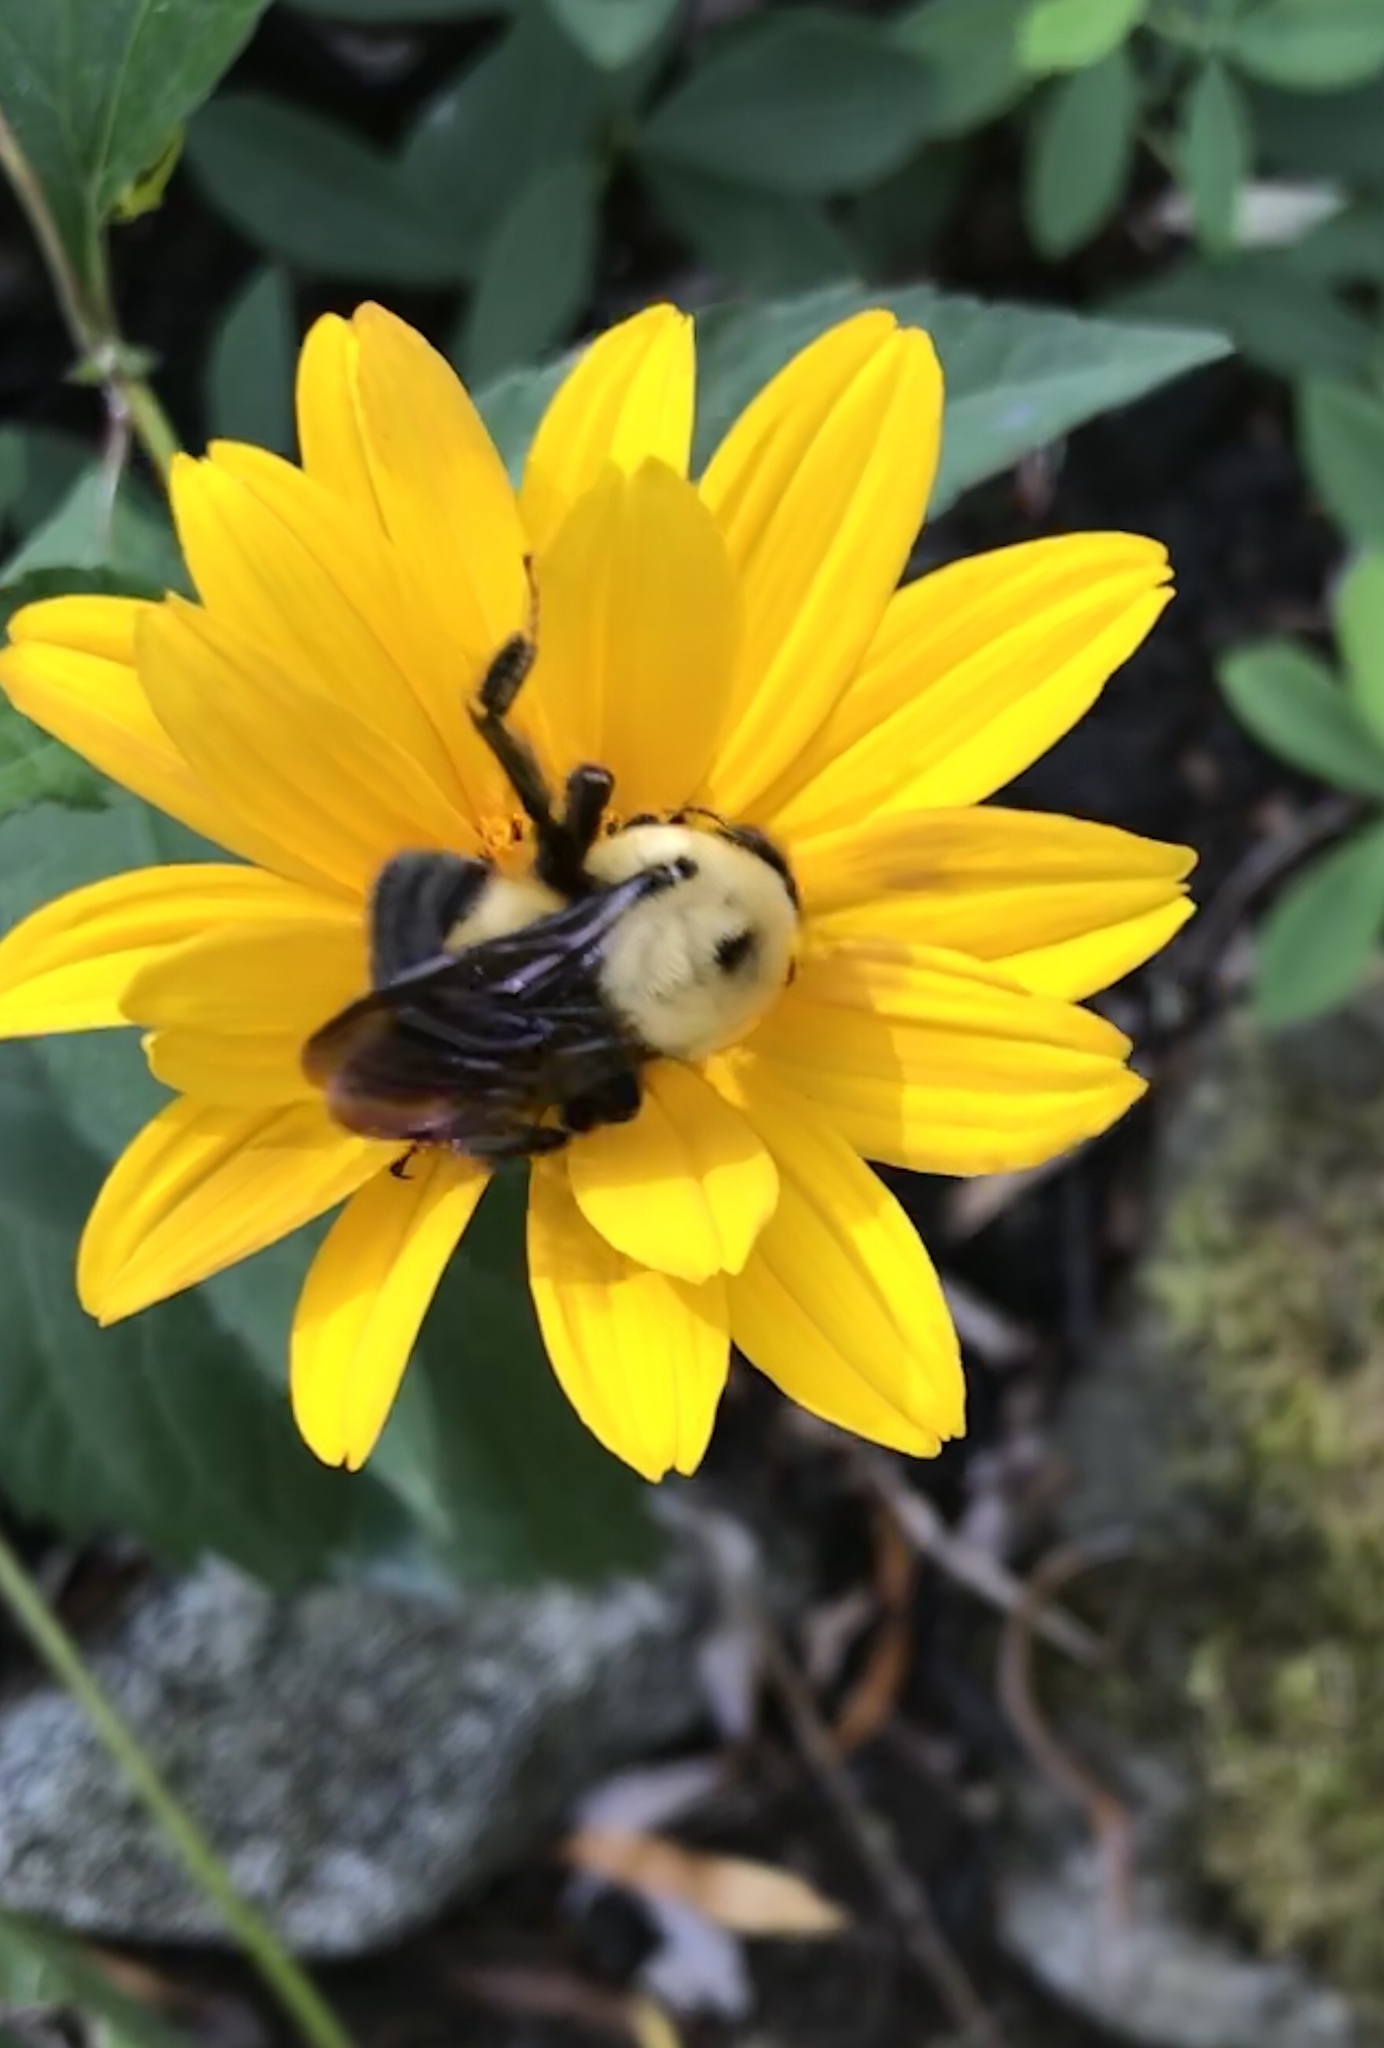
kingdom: Animalia
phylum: Arthropoda
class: Insecta
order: Hymenoptera
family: Apidae
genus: Bombus
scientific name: Bombus griseocollis
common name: Brown-belted bumble bee
